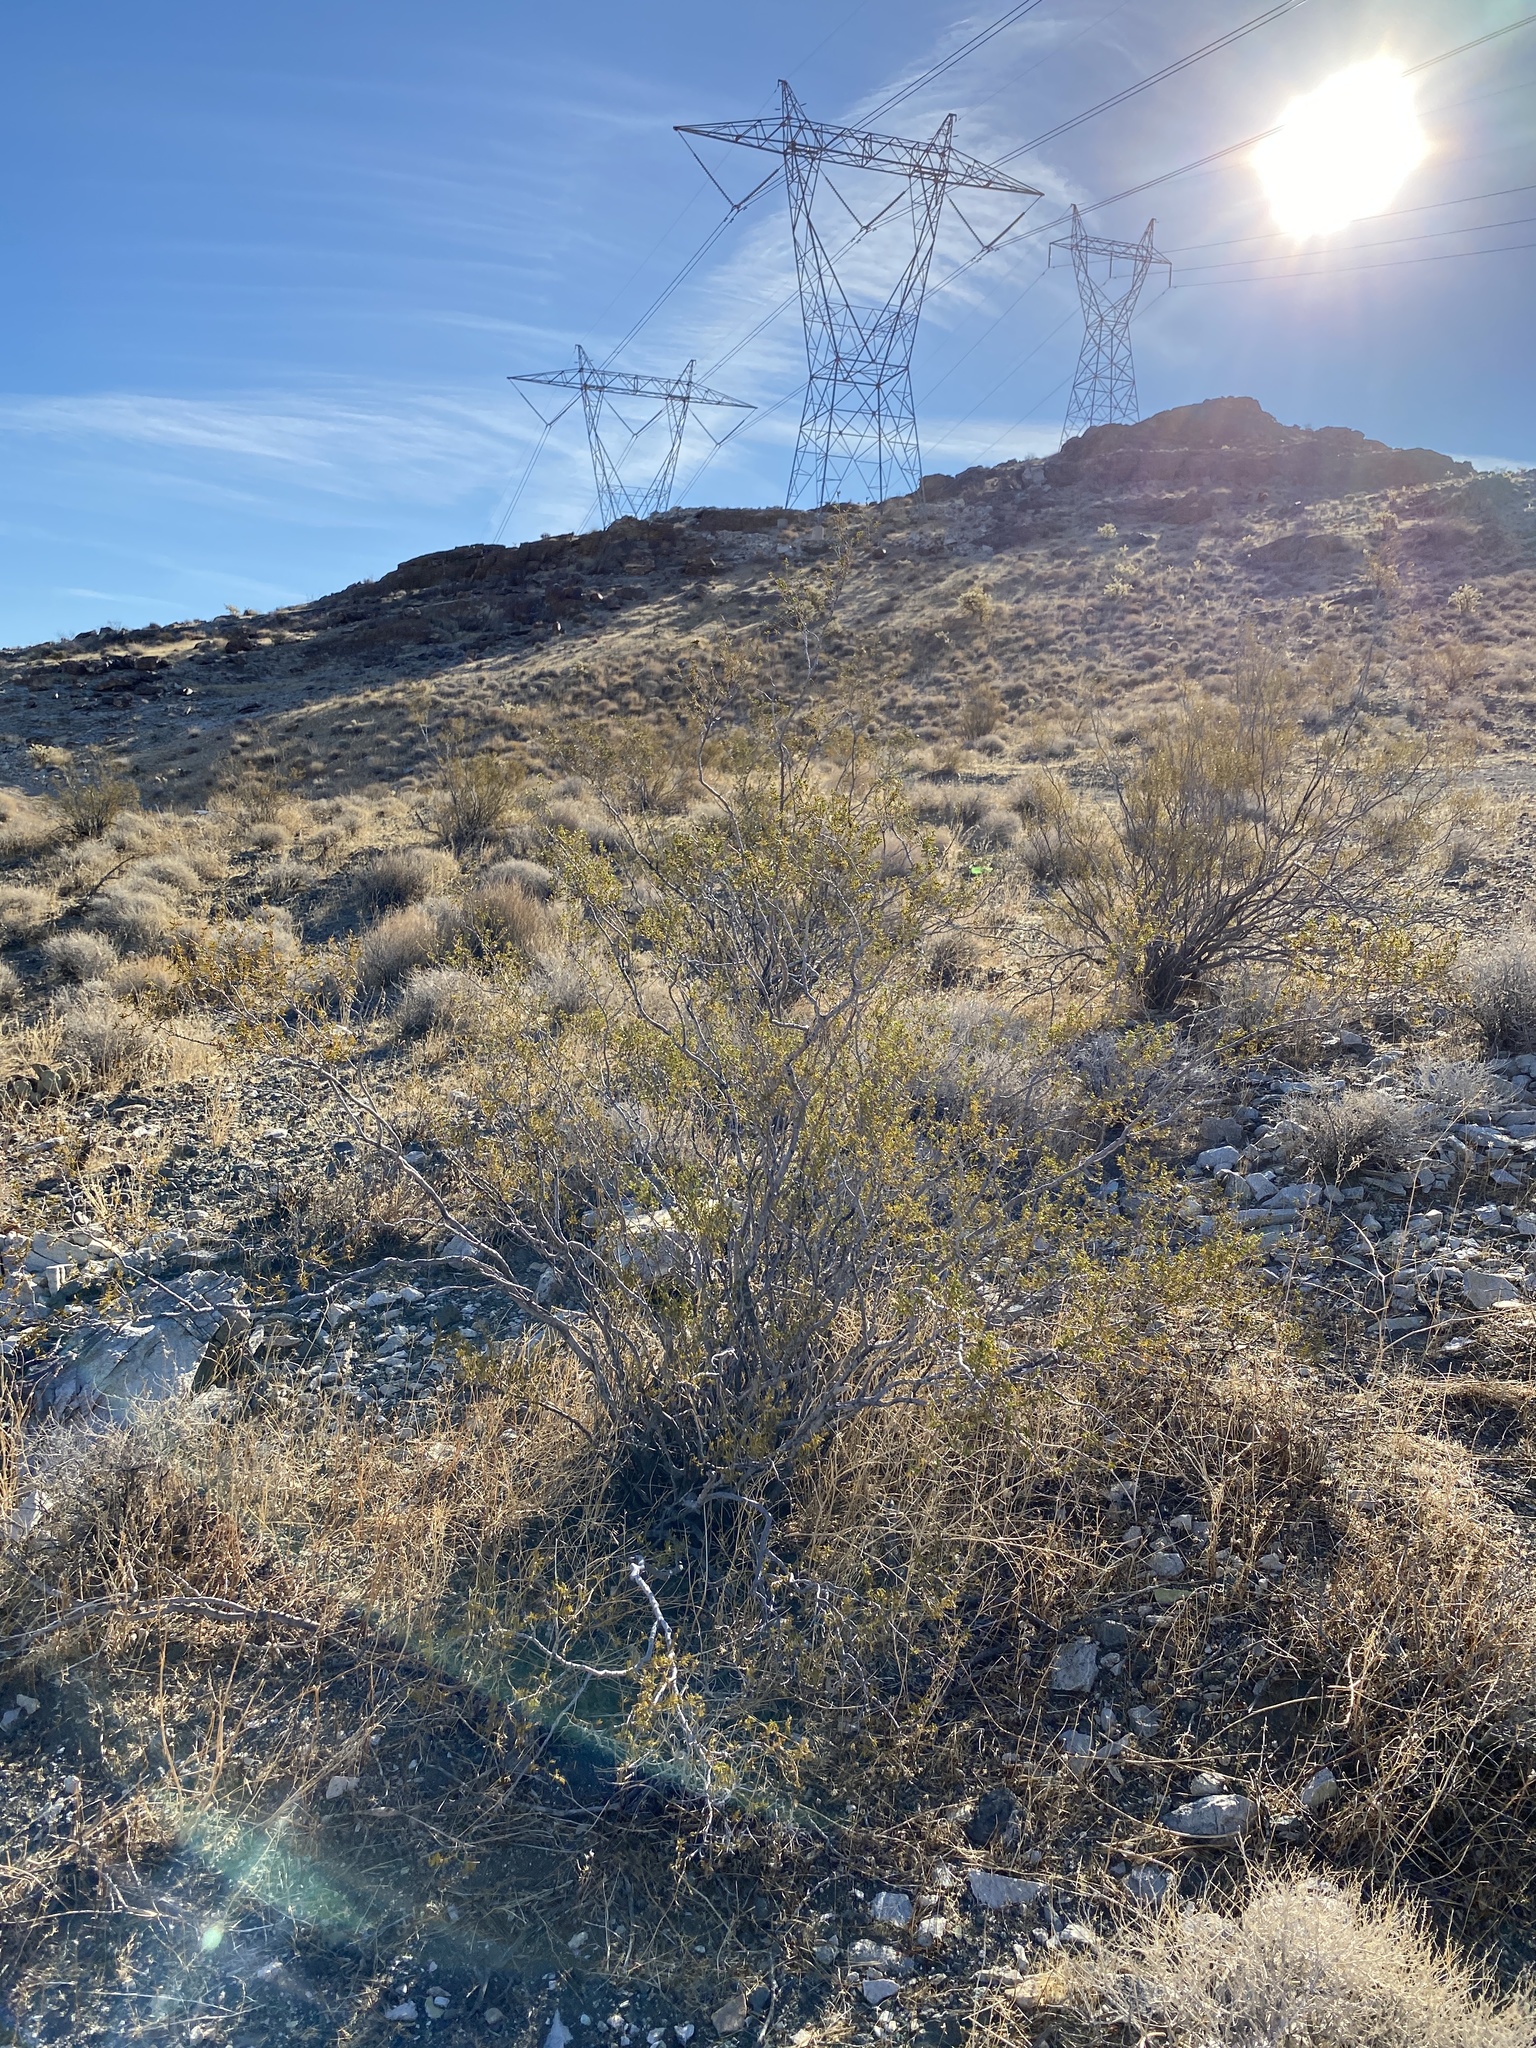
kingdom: Plantae
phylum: Tracheophyta
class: Magnoliopsida
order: Zygophyllales
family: Zygophyllaceae
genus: Larrea
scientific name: Larrea tridentata
